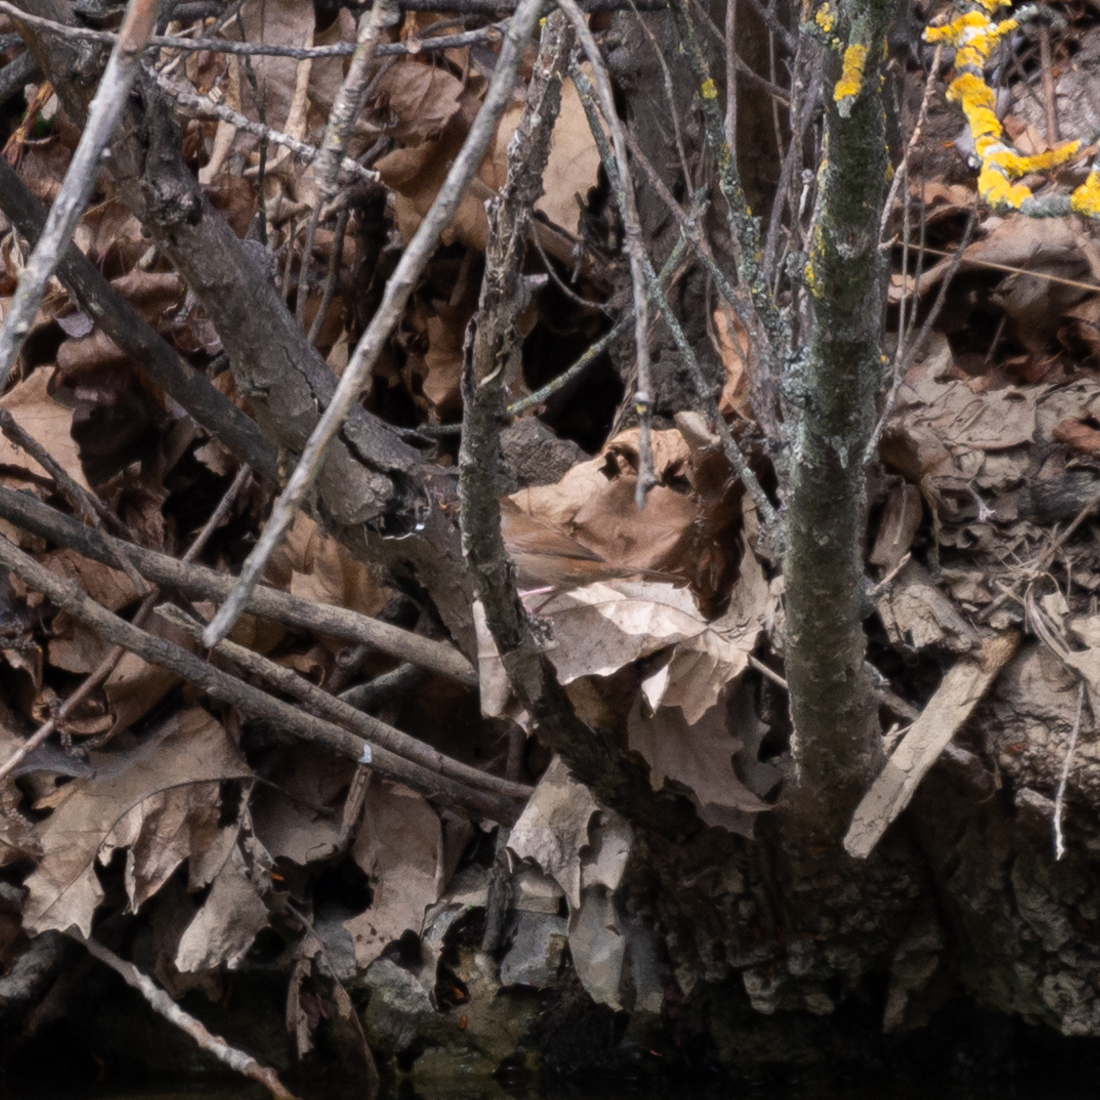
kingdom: Animalia
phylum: Chordata
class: Aves
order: Passeriformes
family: Cettiidae
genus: Cettia
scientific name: Cettia cetti
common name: Cetti's warbler
